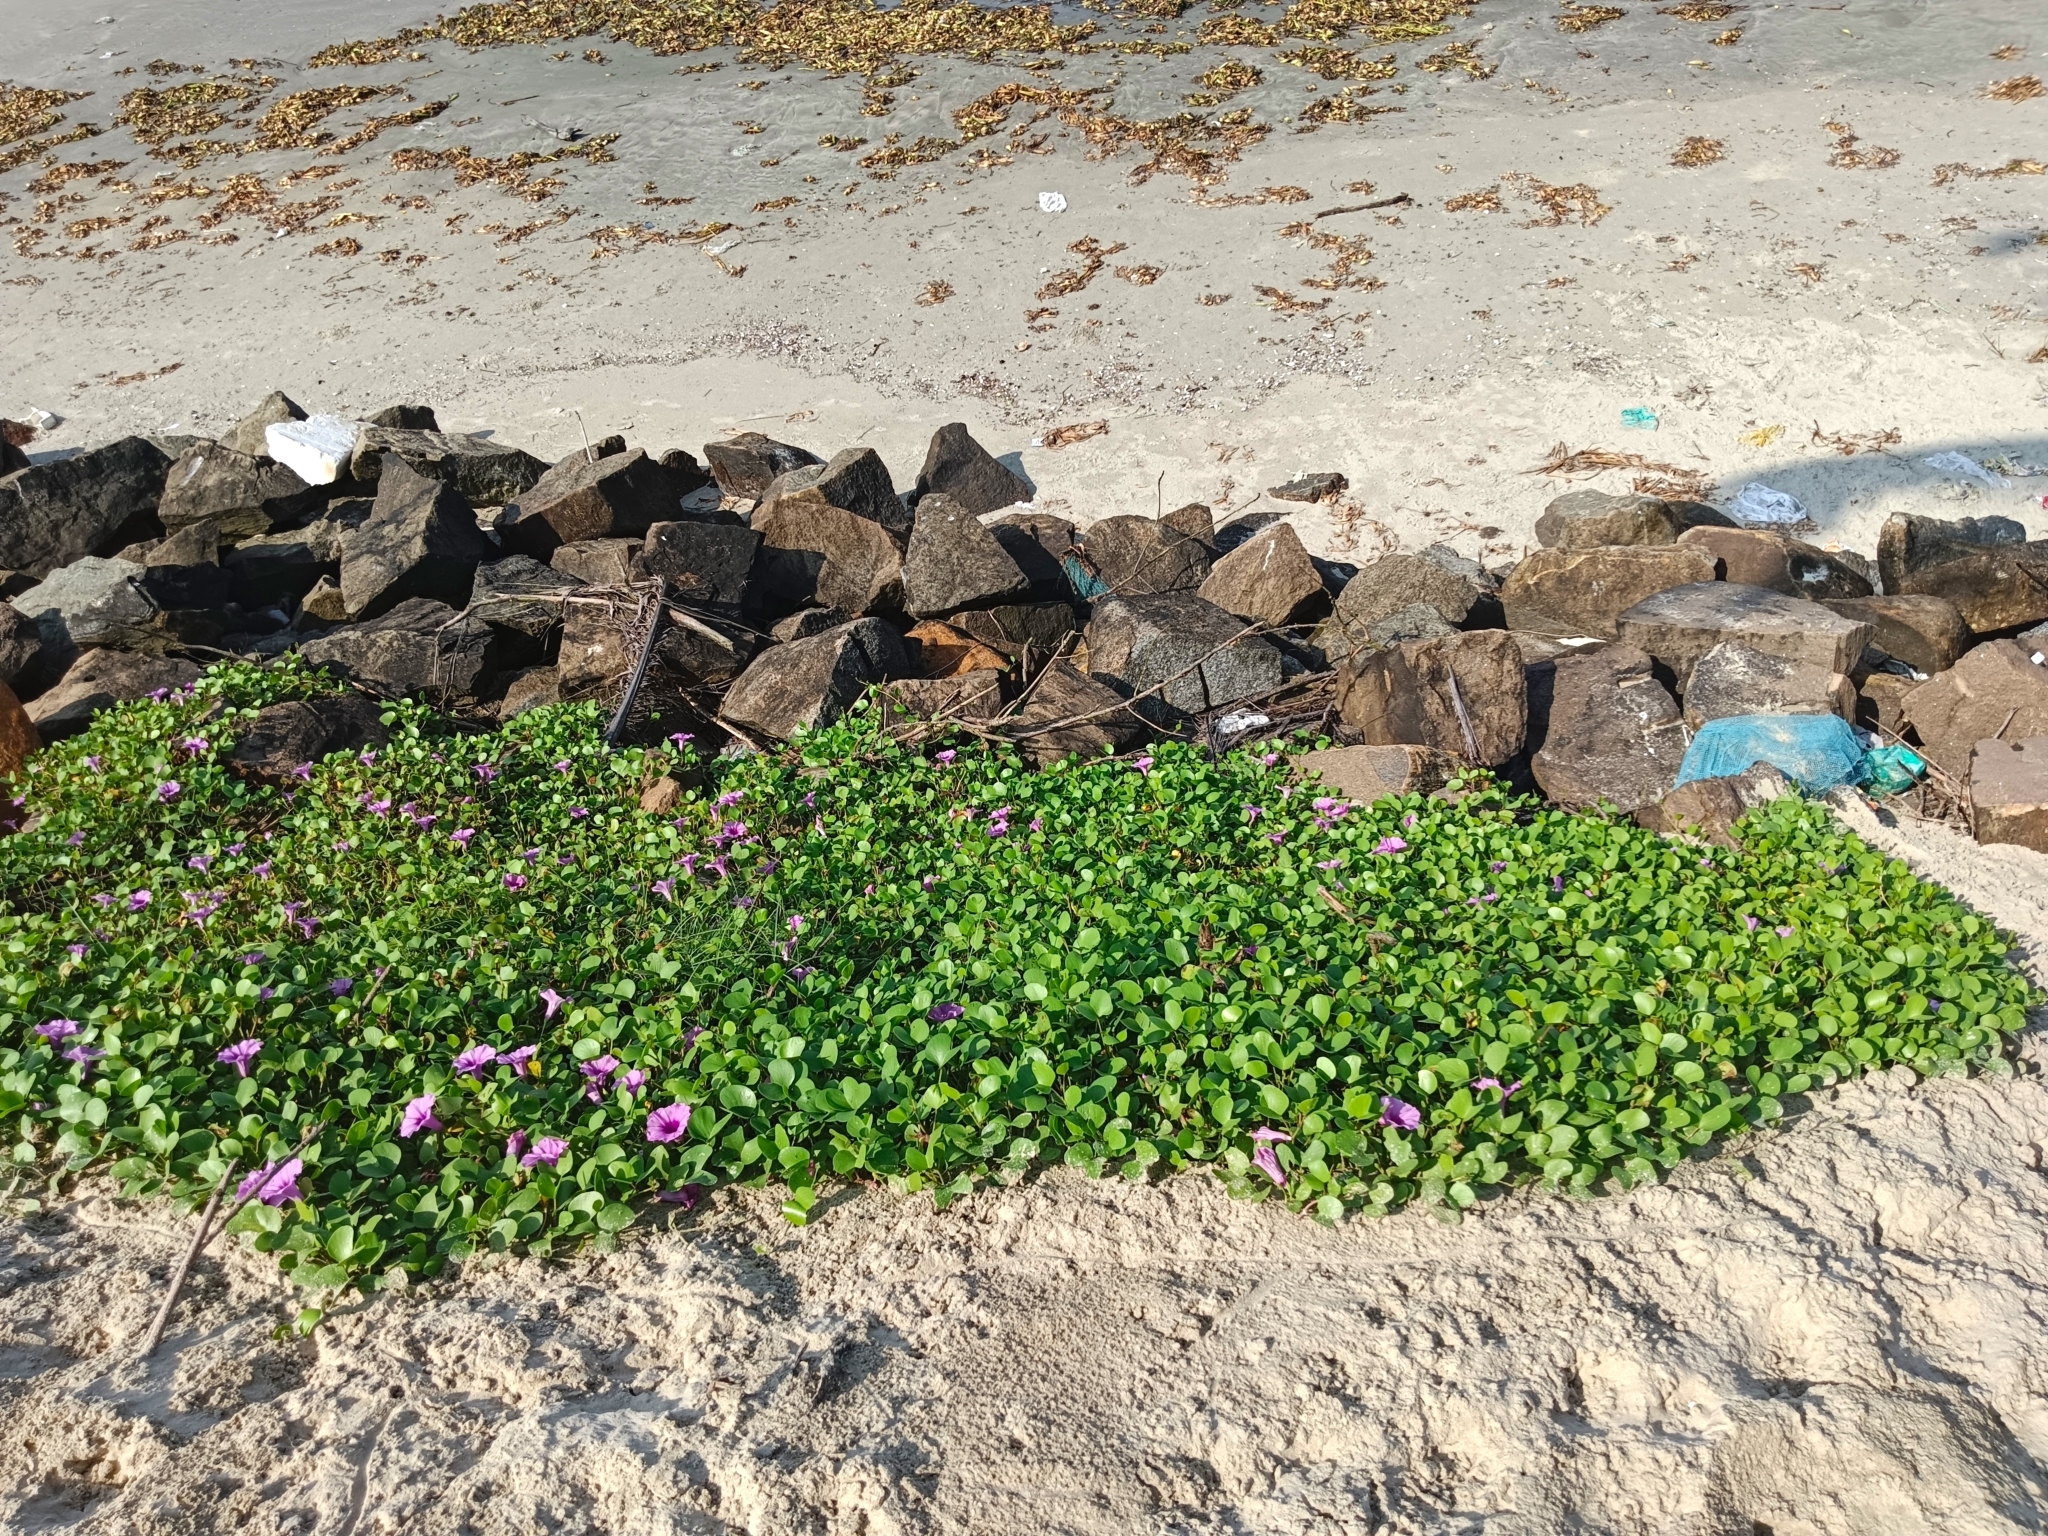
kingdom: Plantae
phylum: Tracheophyta
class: Magnoliopsida
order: Solanales
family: Convolvulaceae
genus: Ipomoea
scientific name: Ipomoea pes-caprae
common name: Beach morning glory
